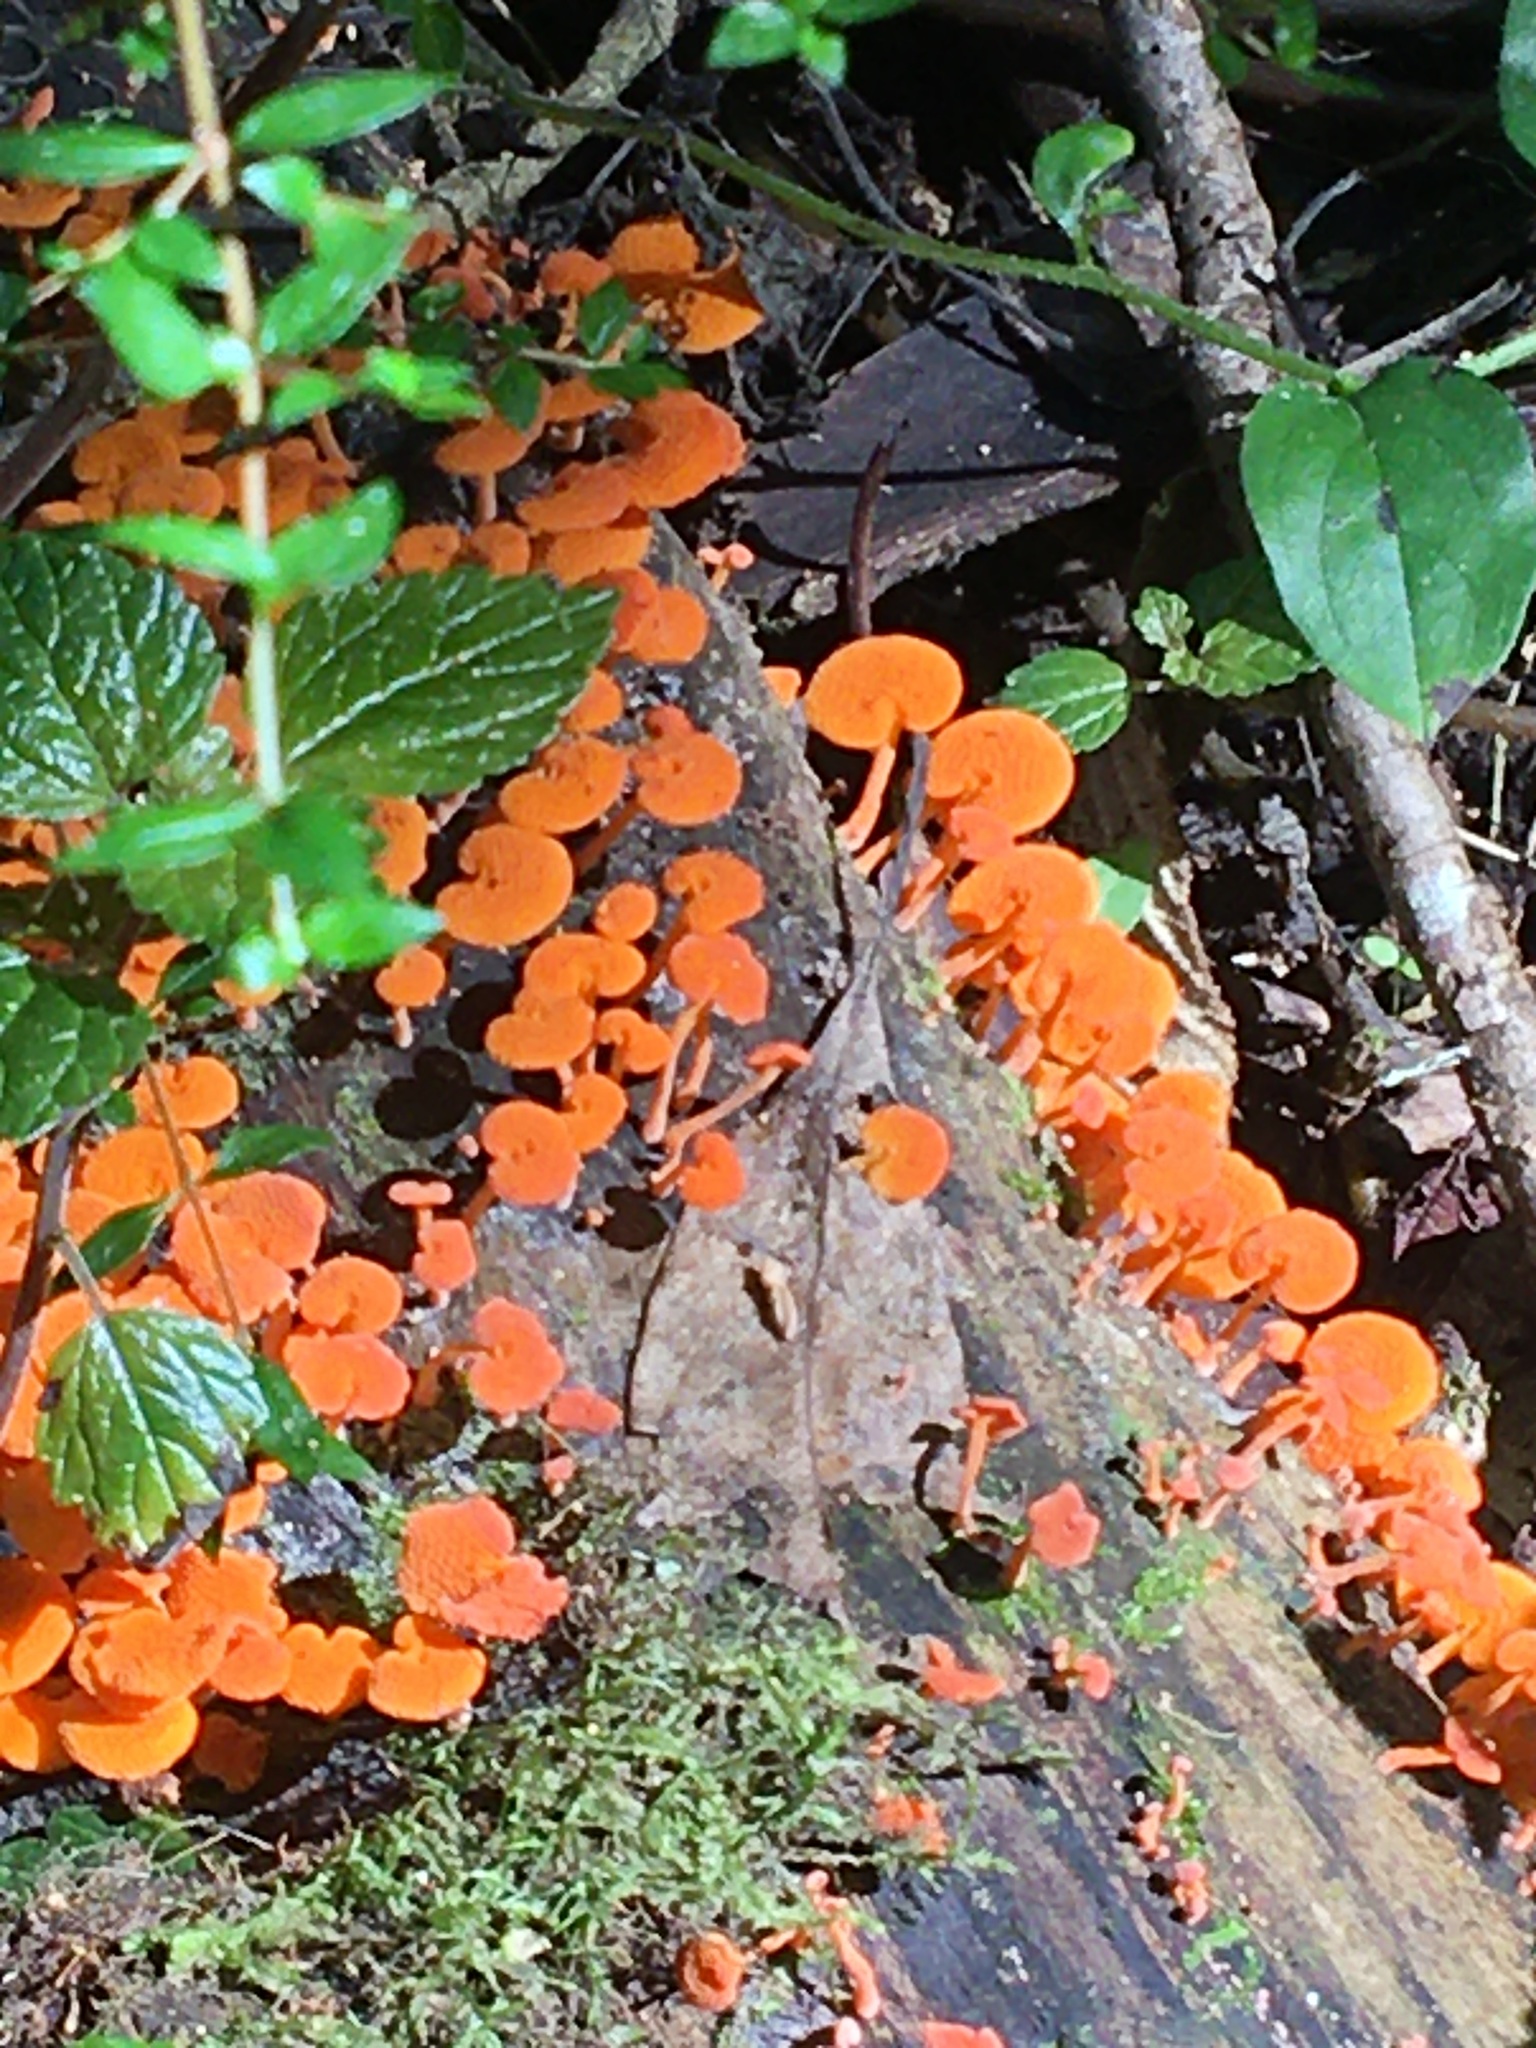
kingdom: Fungi
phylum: Basidiomycota
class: Agaricomycetes
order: Agaricales
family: Mycenaceae
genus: Favolaschia
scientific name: Favolaschia claudopus
